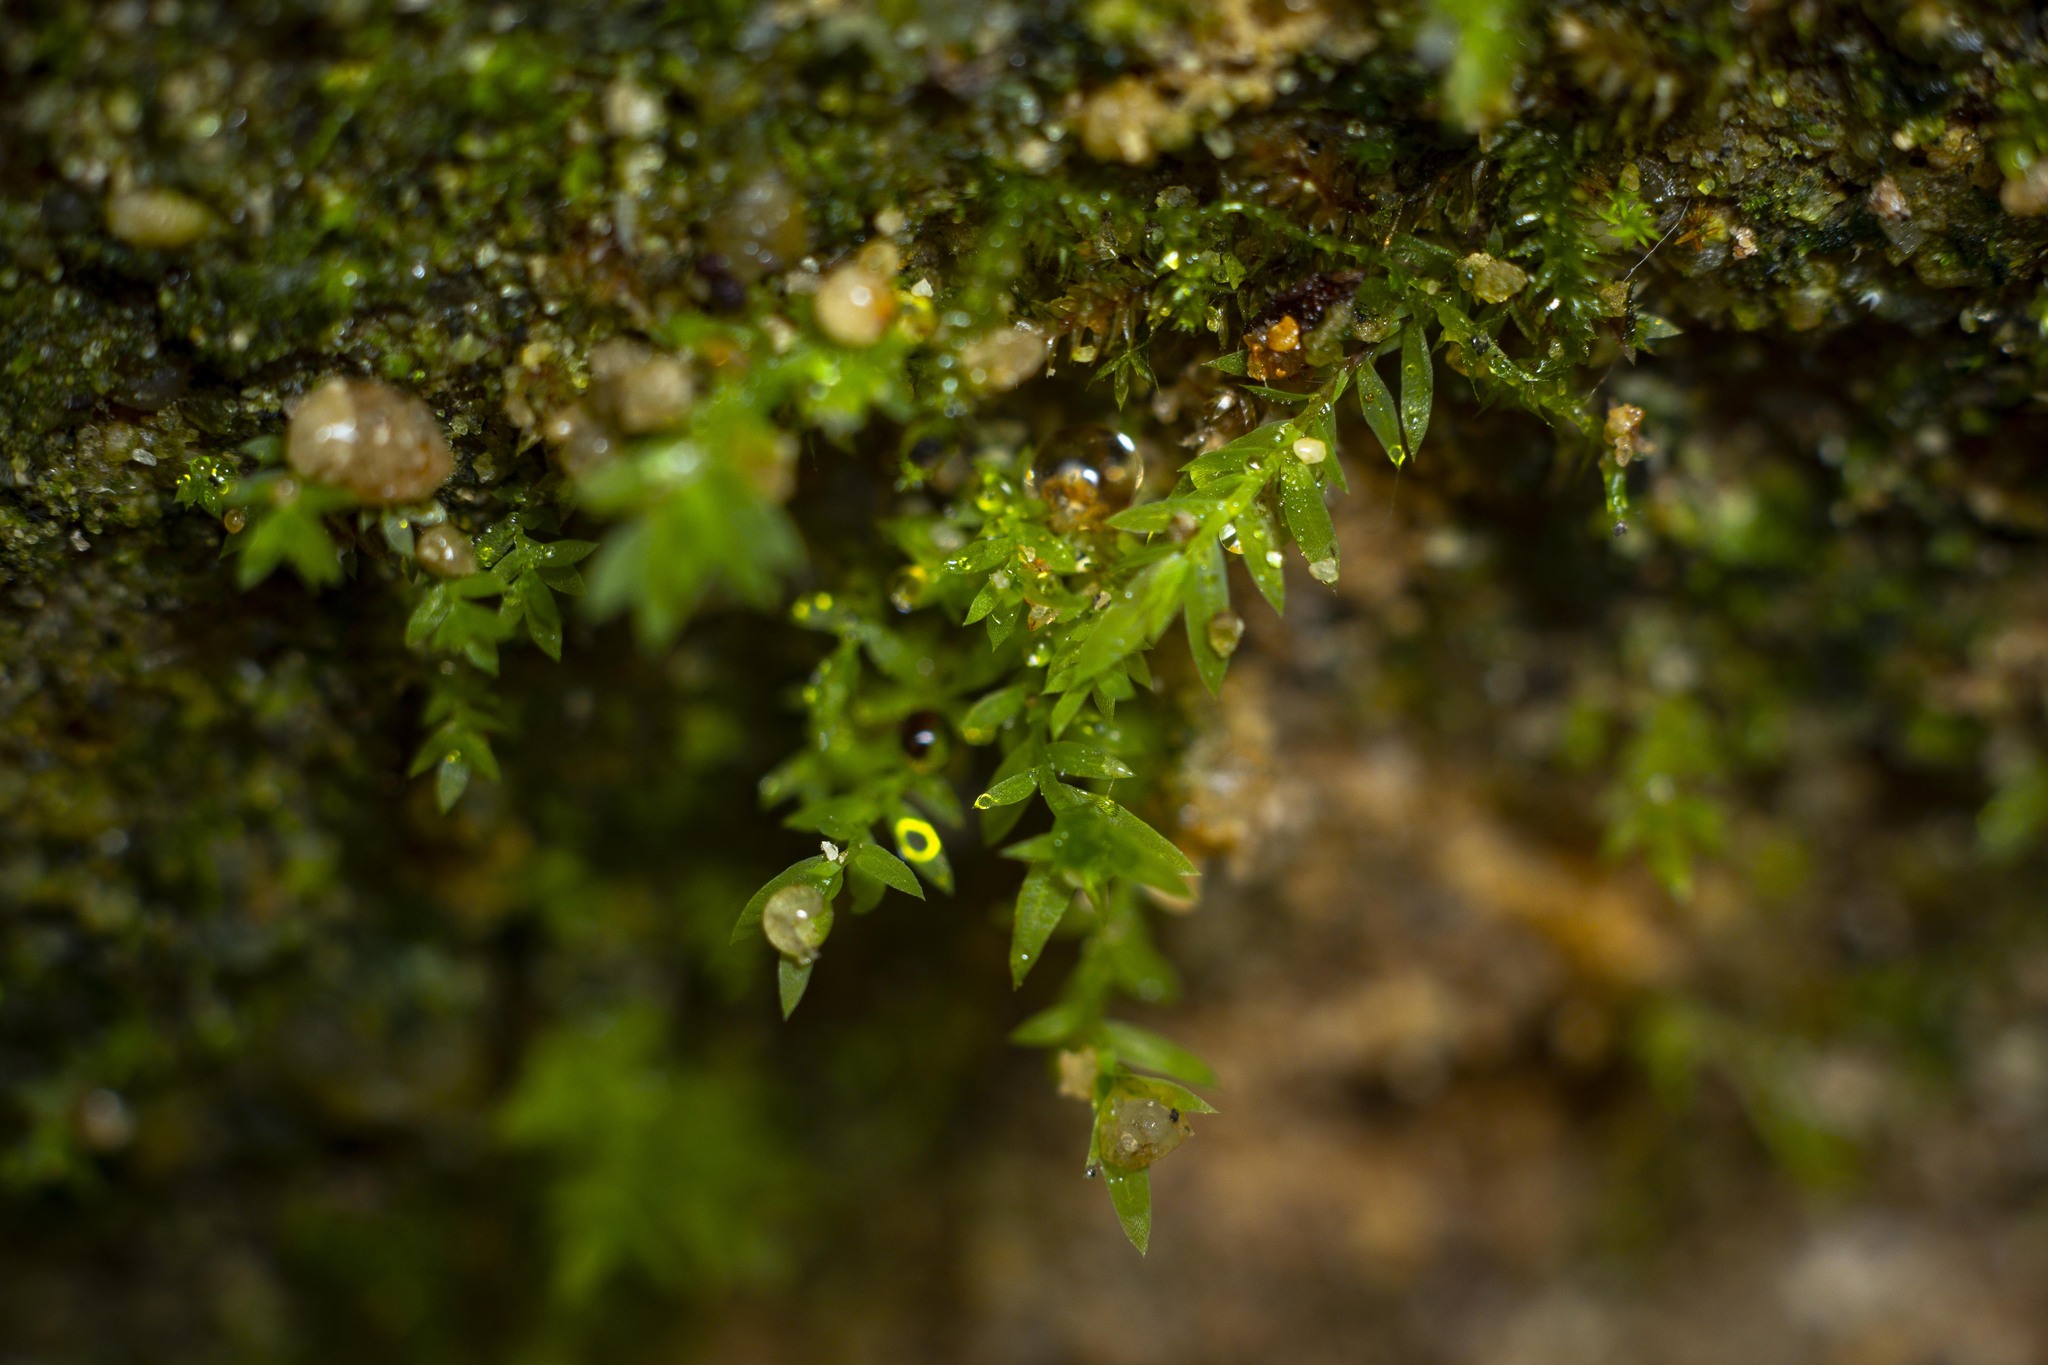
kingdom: Plantae
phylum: Bryophyta
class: Bryopsida
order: Bryales
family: Mniaceae
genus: Epipterygium
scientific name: Epipterygium biauritum
